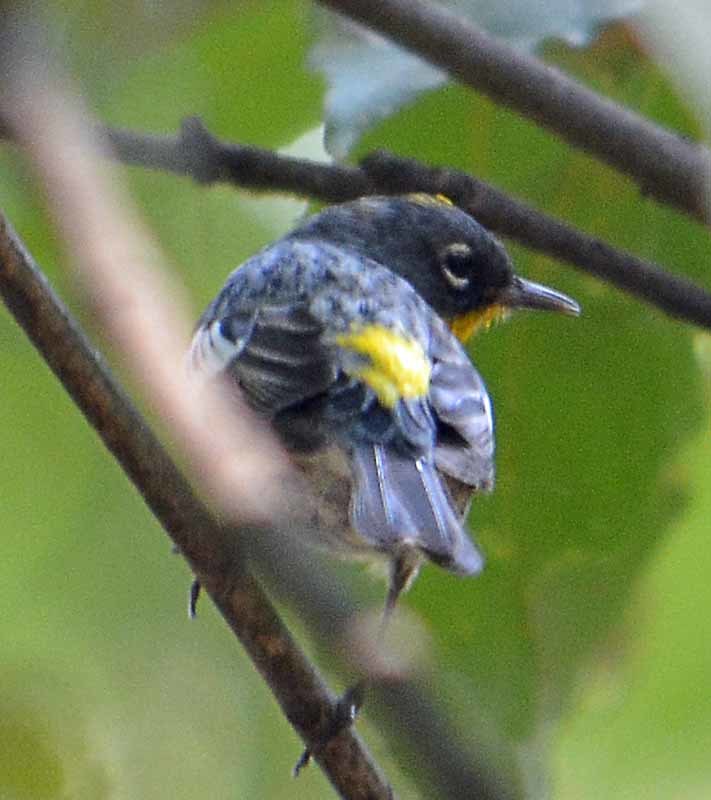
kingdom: Animalia
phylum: Chordata
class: Aves
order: Passeriformes
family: Parulidae
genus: Setophaga
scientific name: Setophaga auduboni
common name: Audubon's warbler
